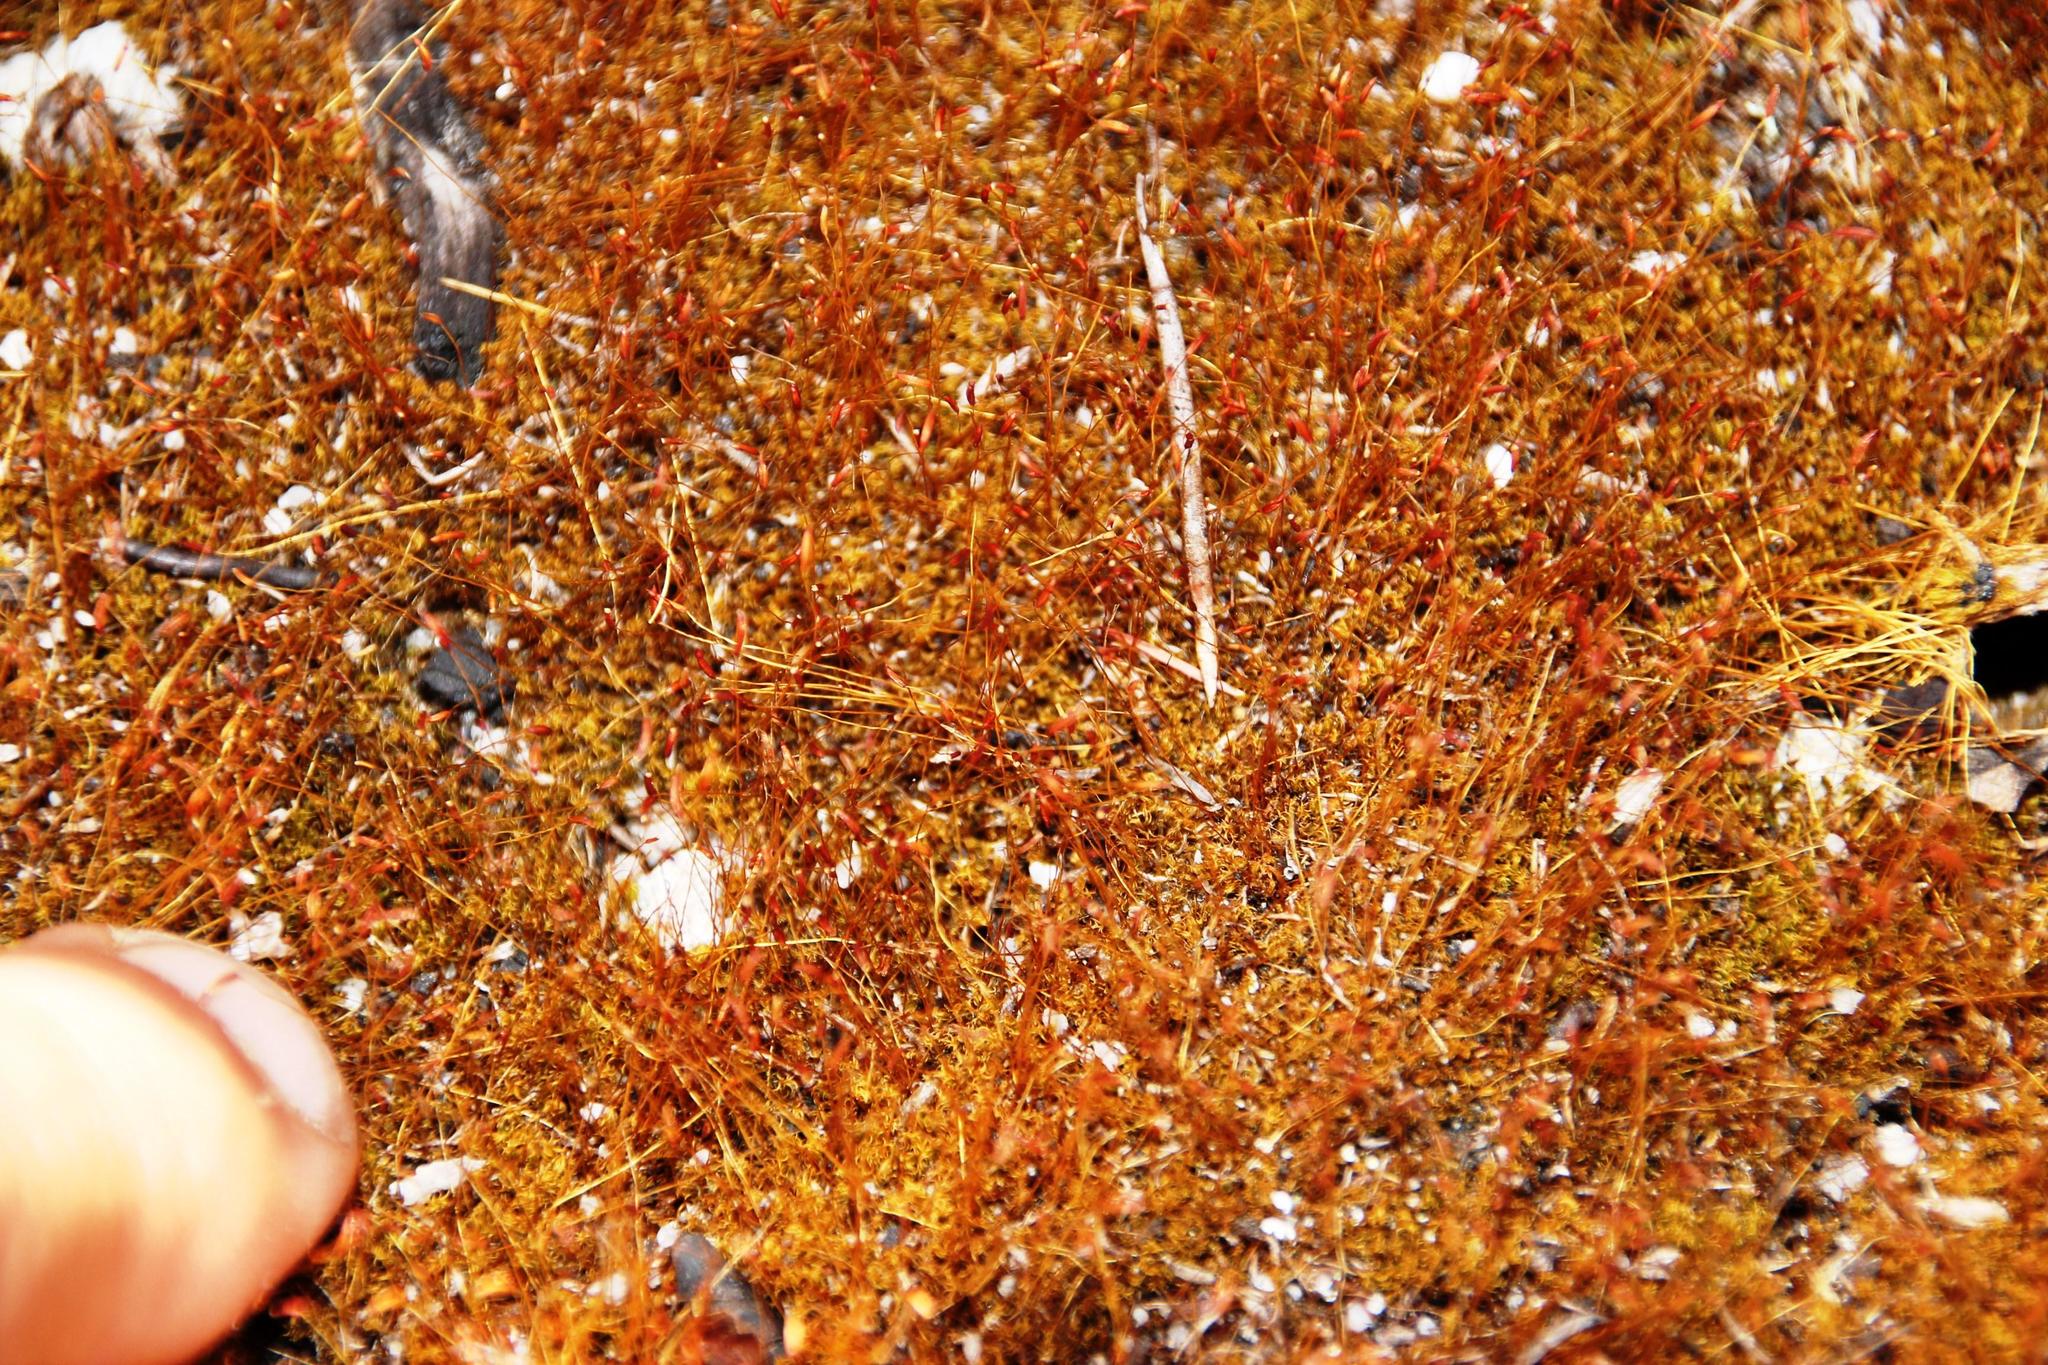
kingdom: Plantae
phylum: Bryophyta
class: Bryopsida
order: Dicranales
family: Ditrichaceae
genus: Ceratodon
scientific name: Ceratodon purpureus
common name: Redshank
